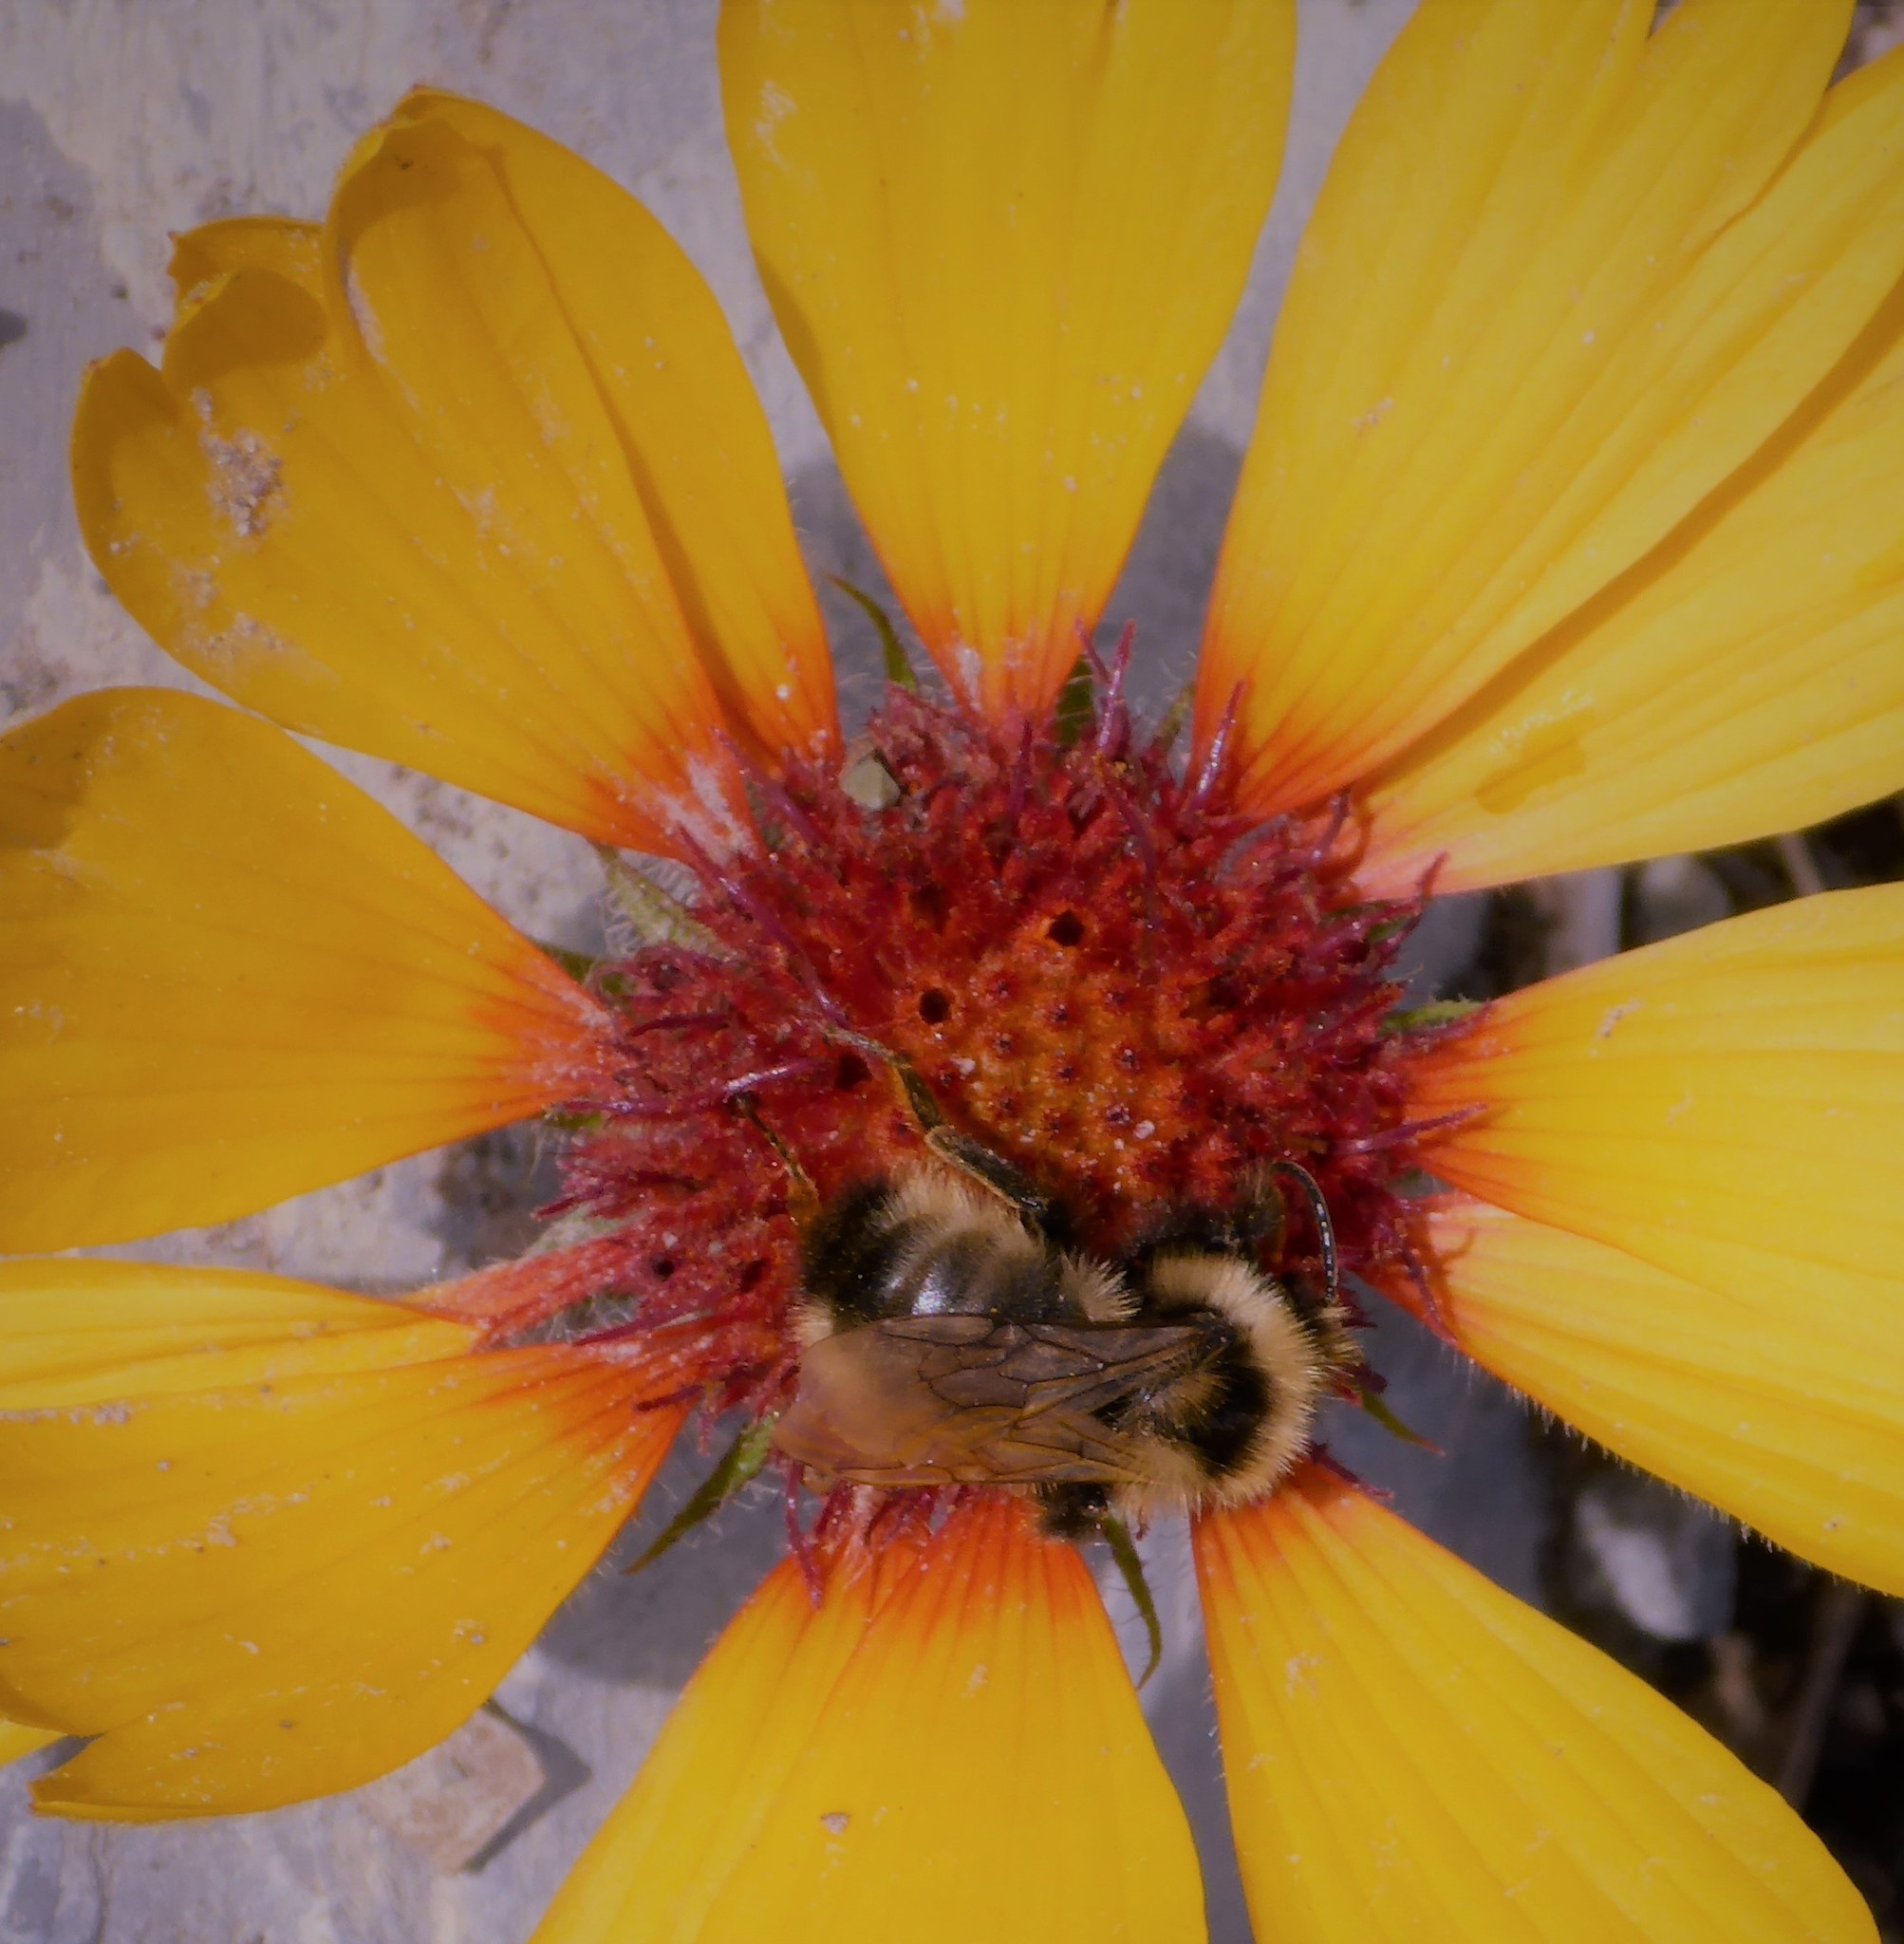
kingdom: Animalia
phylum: Arthropoda
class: Insecta
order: Hymenoptera
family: Apidae
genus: Bombus
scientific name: Bombus insularis
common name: Indiscriminate cuckoo bumble bee
